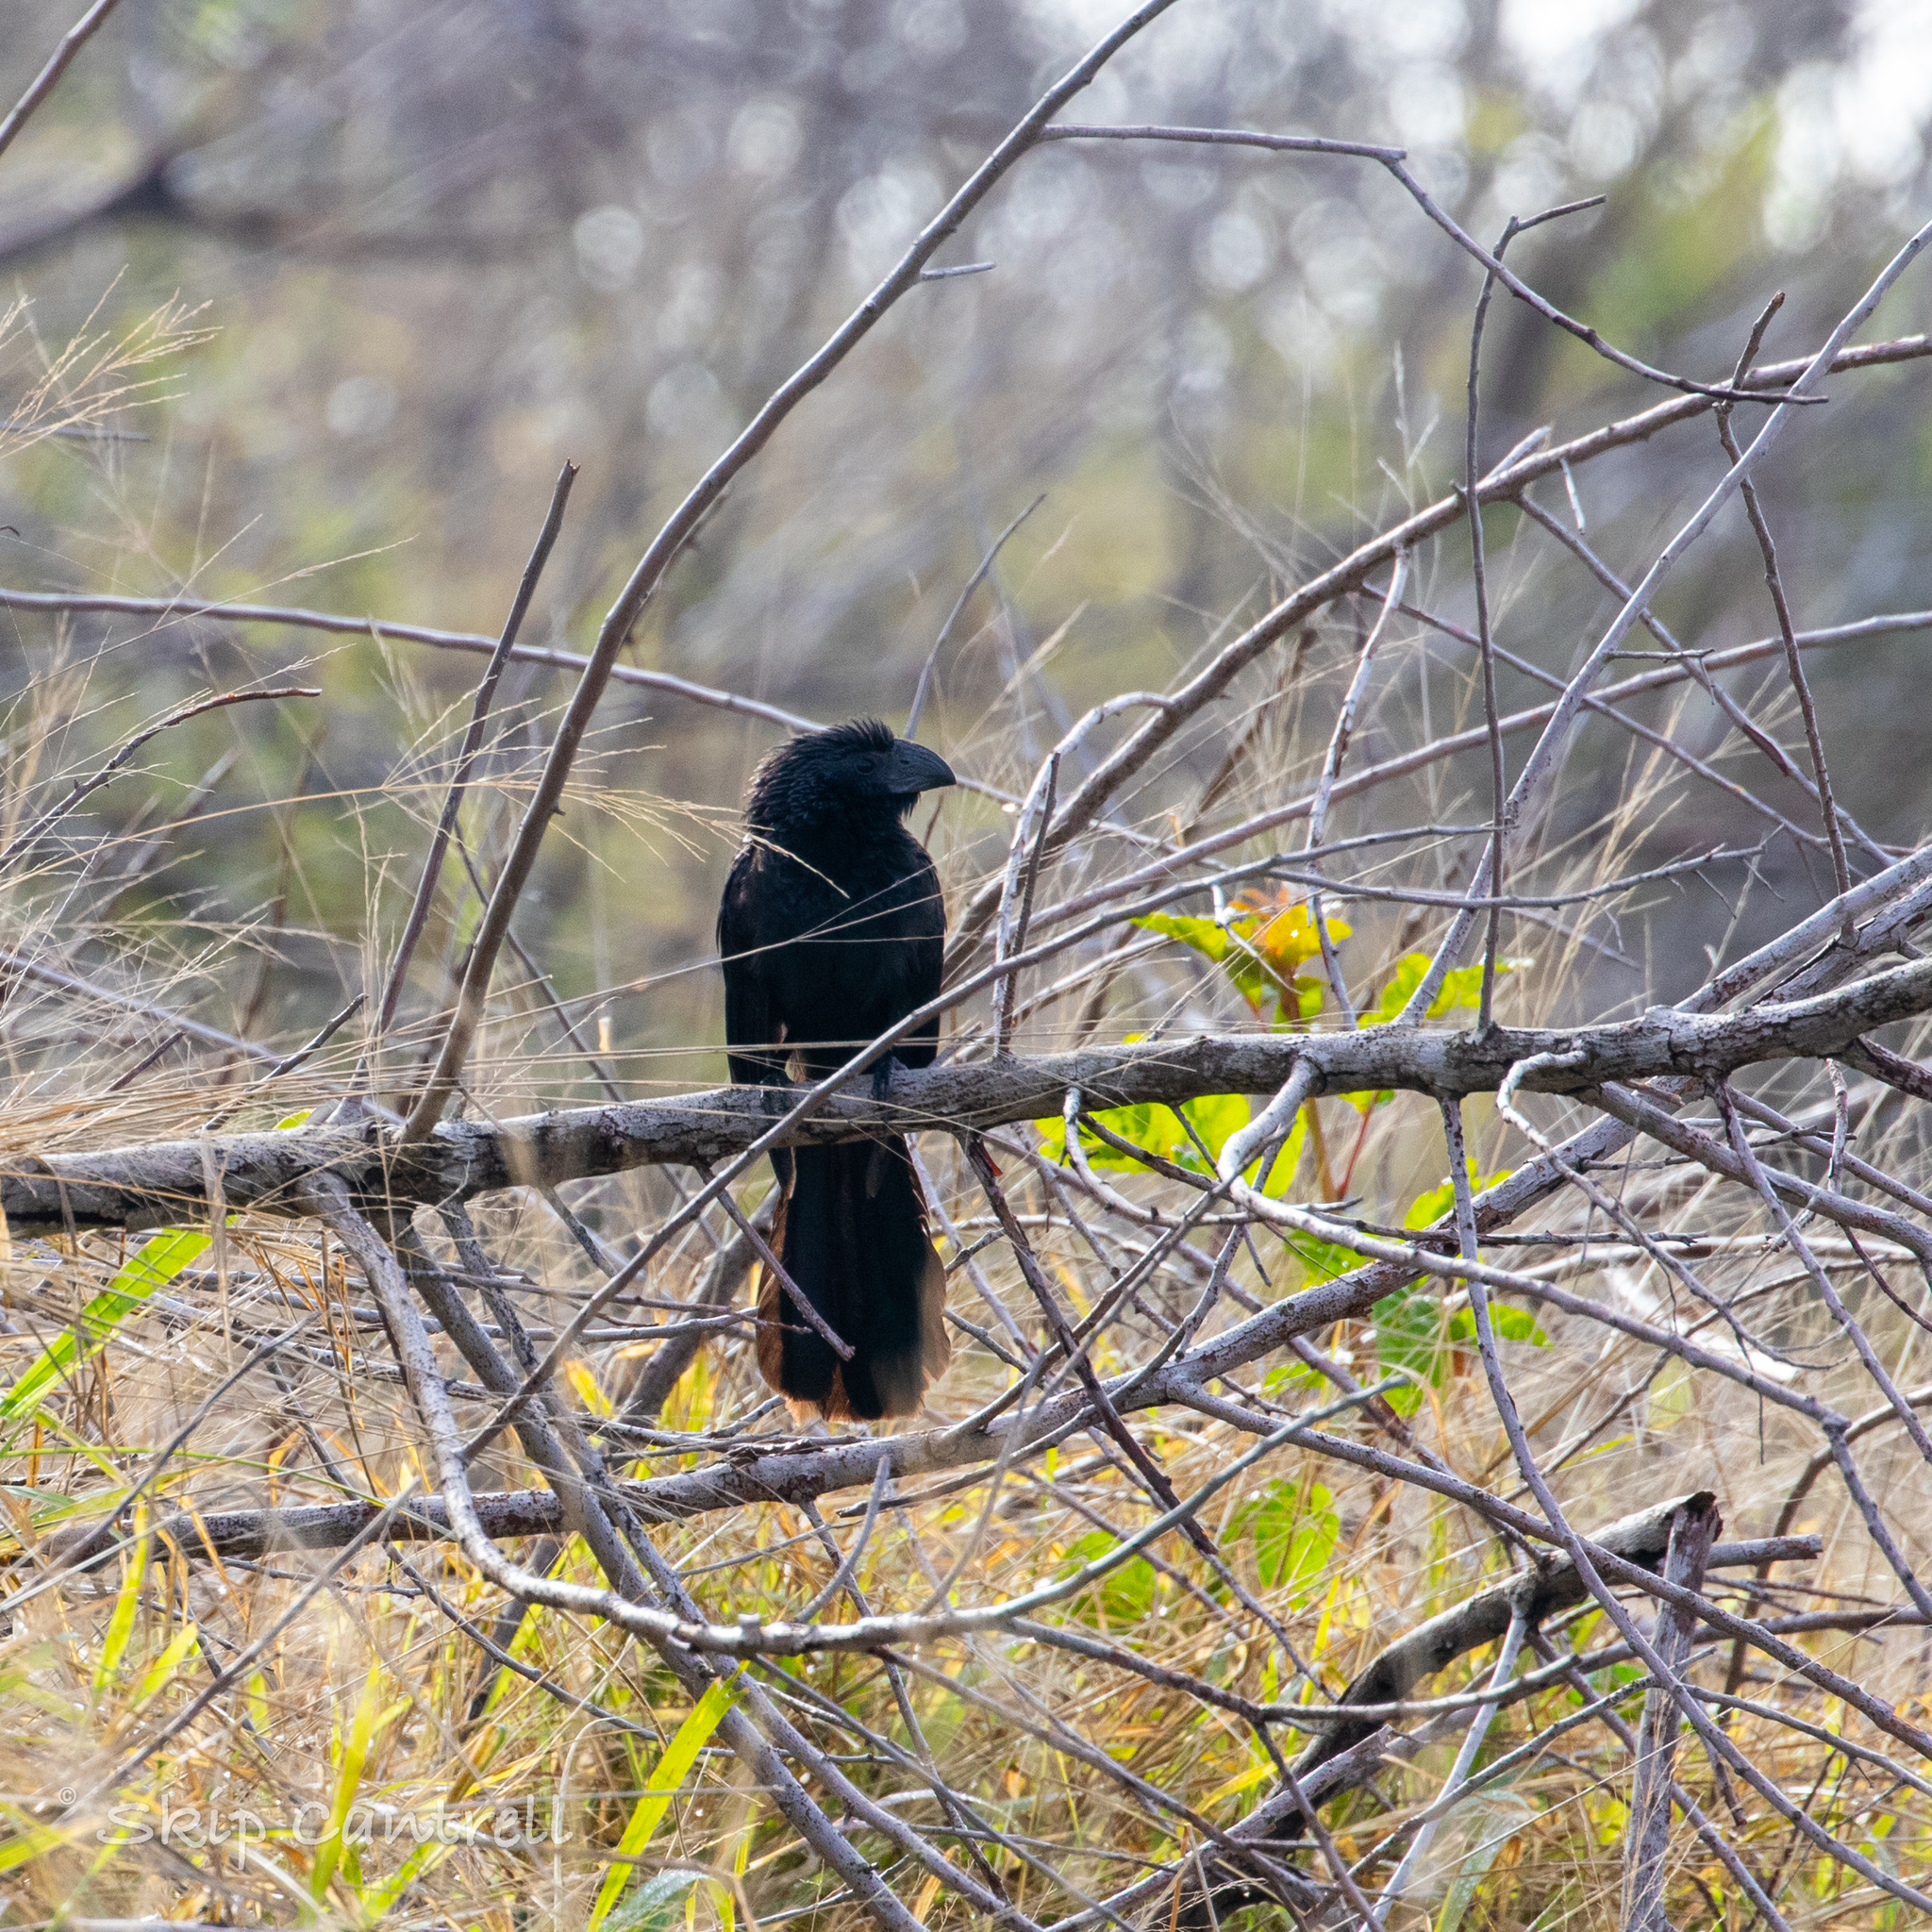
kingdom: Animalia
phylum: Chordata
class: Aves
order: Cuculiformes
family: Cuculidae
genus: Crotophaga
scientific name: Crotophaga sulcirostris
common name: Groove-billed ani
